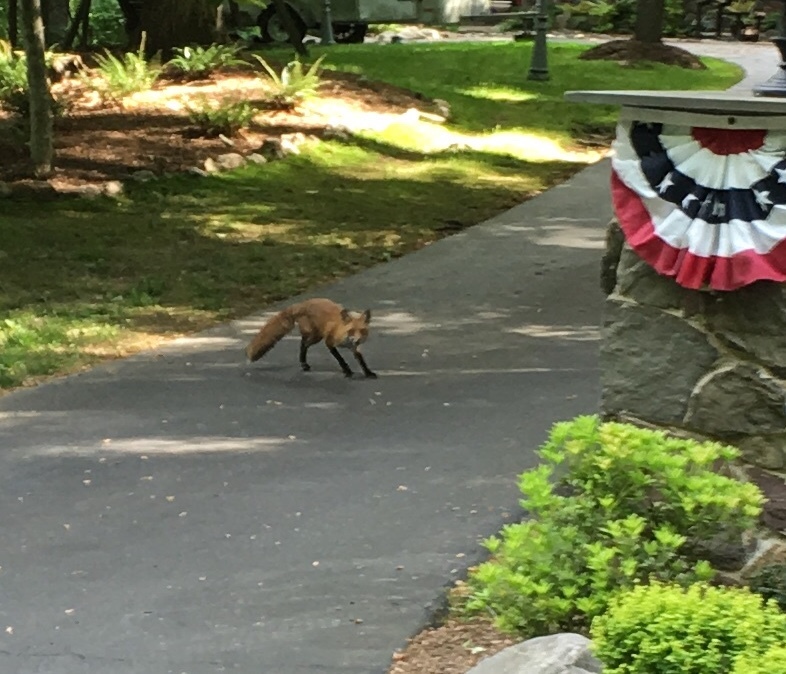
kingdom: Animalia
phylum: Chordata
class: Mammalia
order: Carnivora
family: Canidae
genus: Vulpes
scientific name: Vulpes vulpes
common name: Red fox
